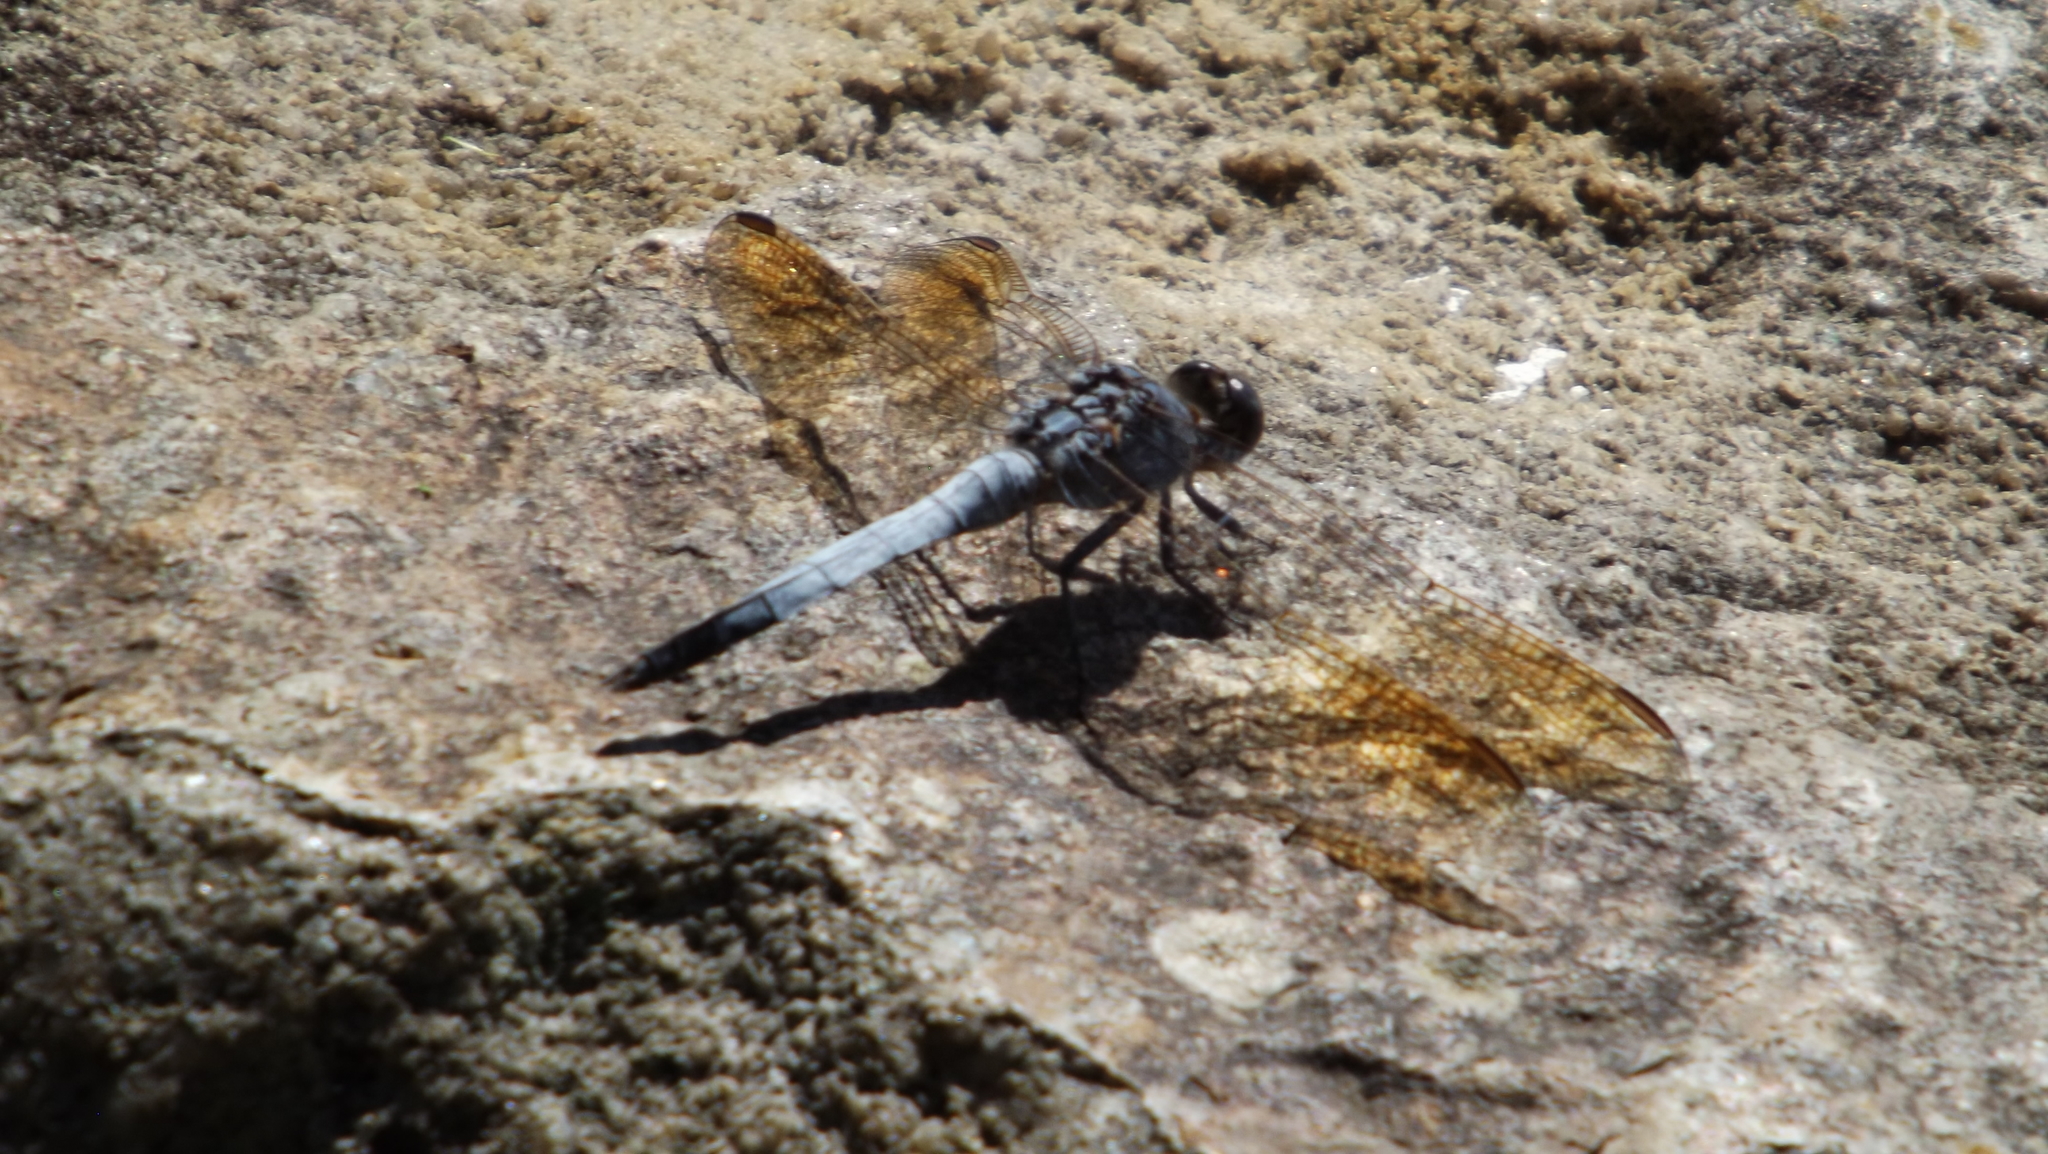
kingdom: Animalia
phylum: Arthropoda
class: Insecta
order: Odonata
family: Libellulidae
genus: Orthetrum
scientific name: Orthetrum caledonicum
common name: Blue skimmer
